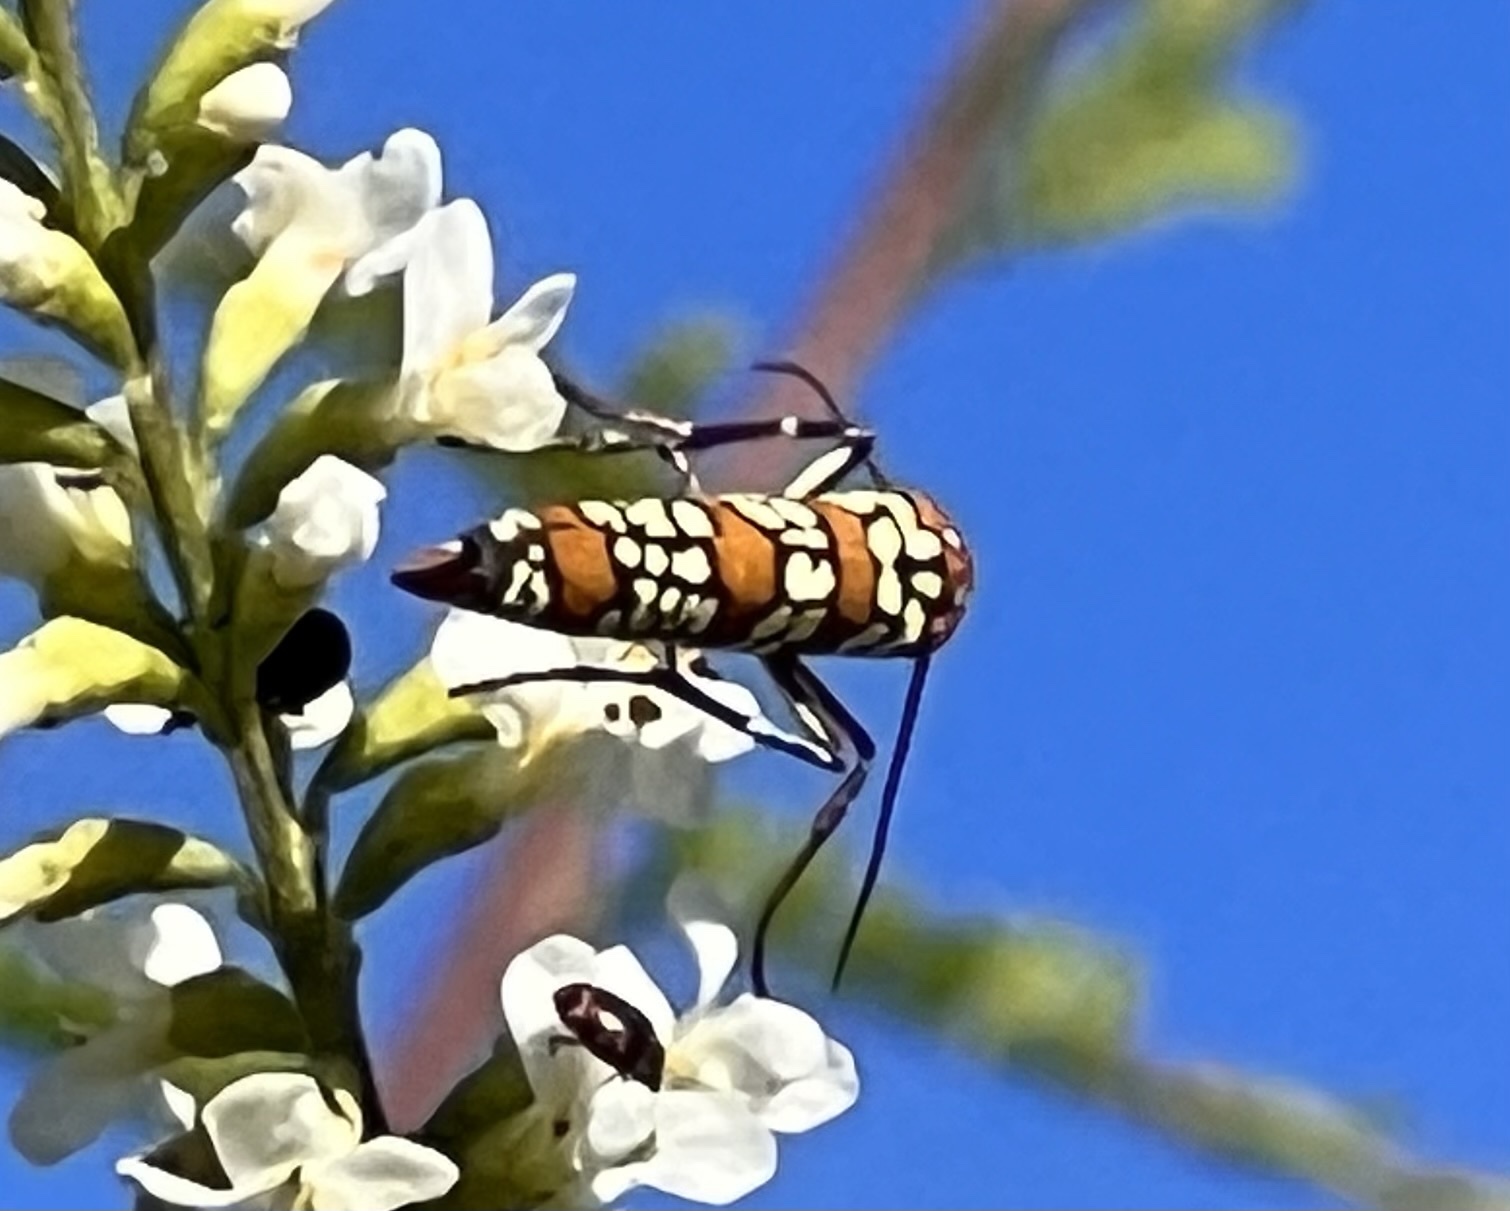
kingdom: Animalia
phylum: Arthropoda
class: Insecta
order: Lepidoptera
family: Attevidae
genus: Atteva
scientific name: Atteva punctella
